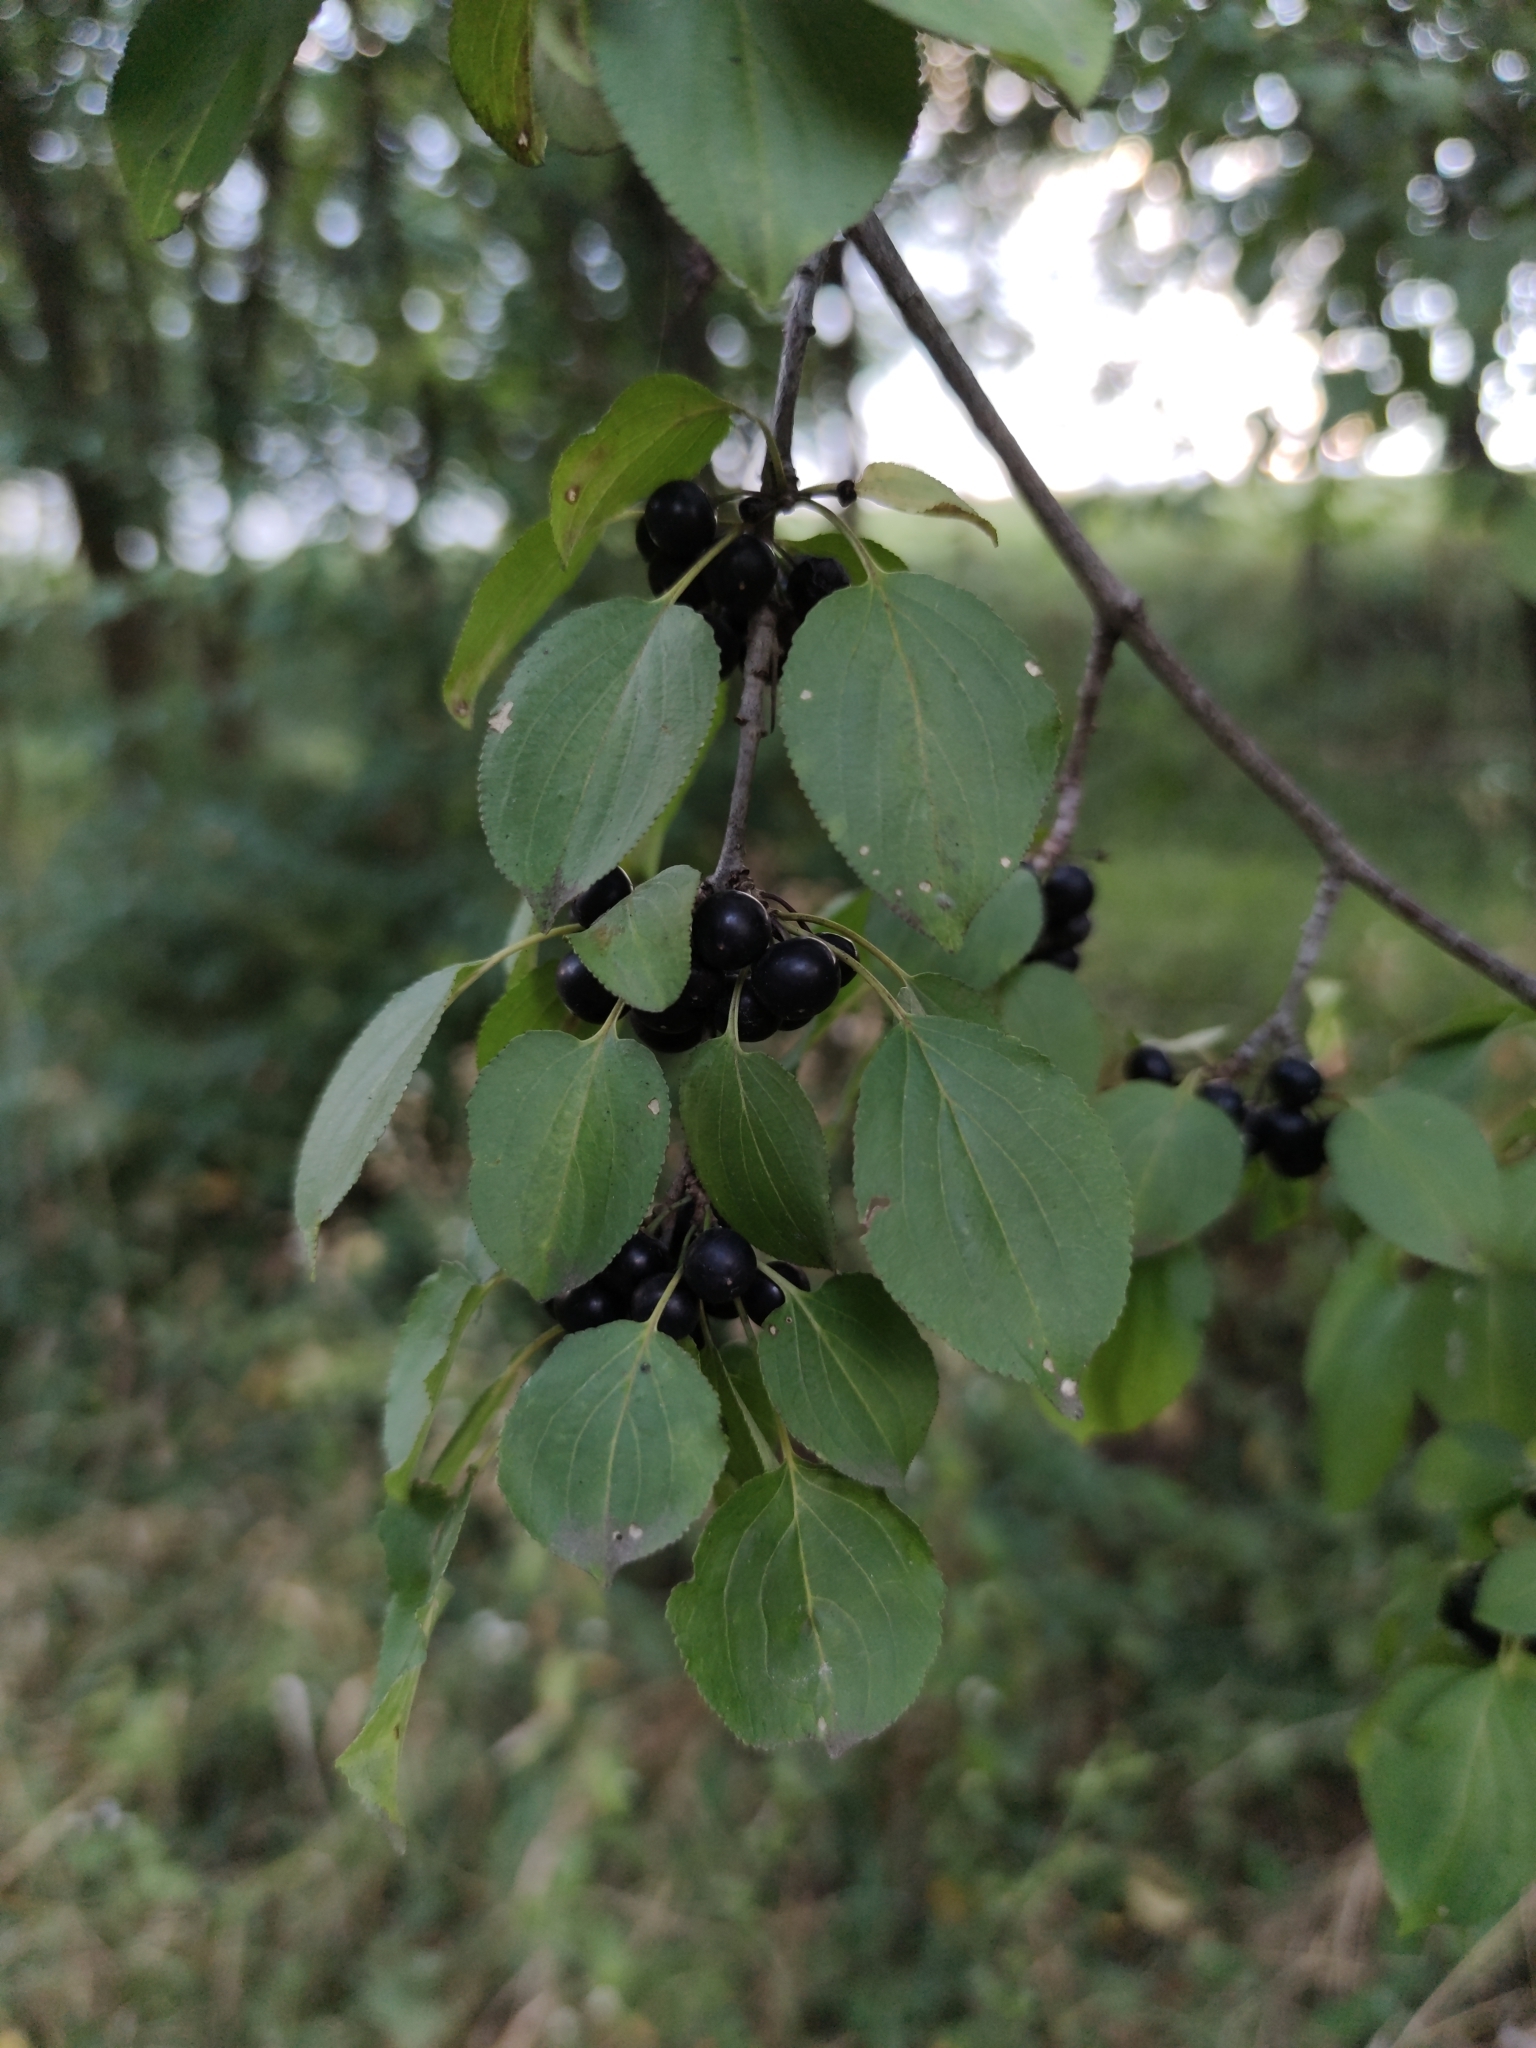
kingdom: Plantae
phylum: Tracheophyta
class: Magnoliopsida
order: Rosales
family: Rhamnaceae
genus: Rhamnus
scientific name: Rhamnus cathartica
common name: Common buckthorn
